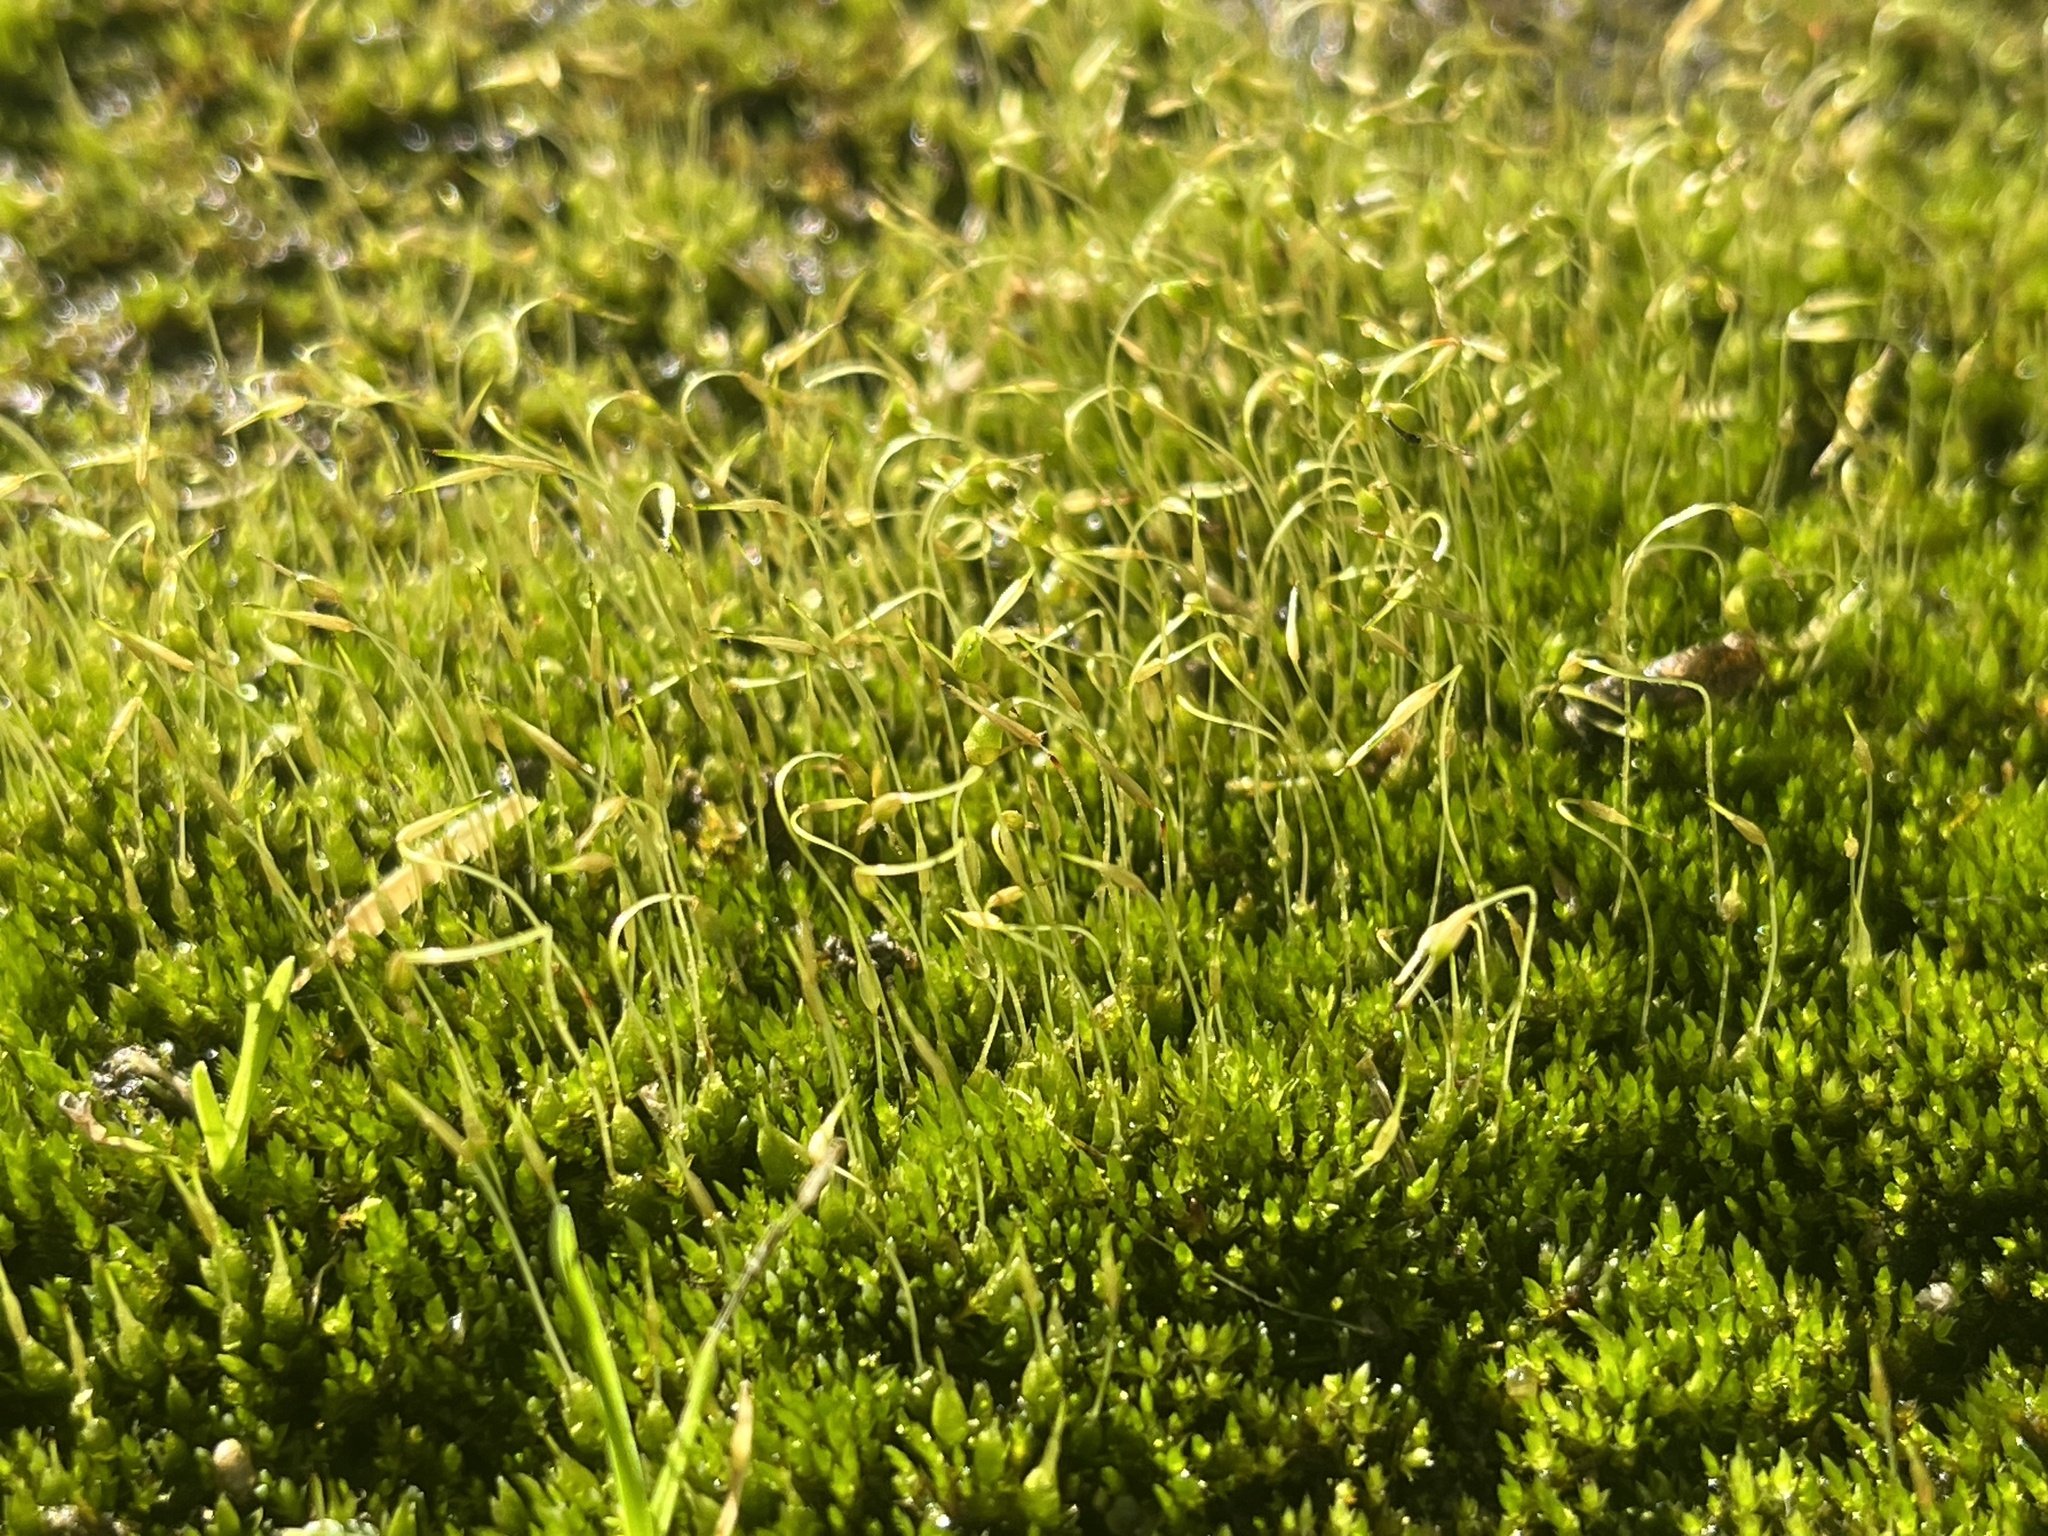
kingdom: Plantae
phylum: Bryophyta
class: Bryopsida
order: Funariales
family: Funariaceae
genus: Funaria
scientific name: Funaria hygrometrica
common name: Common cord moss
